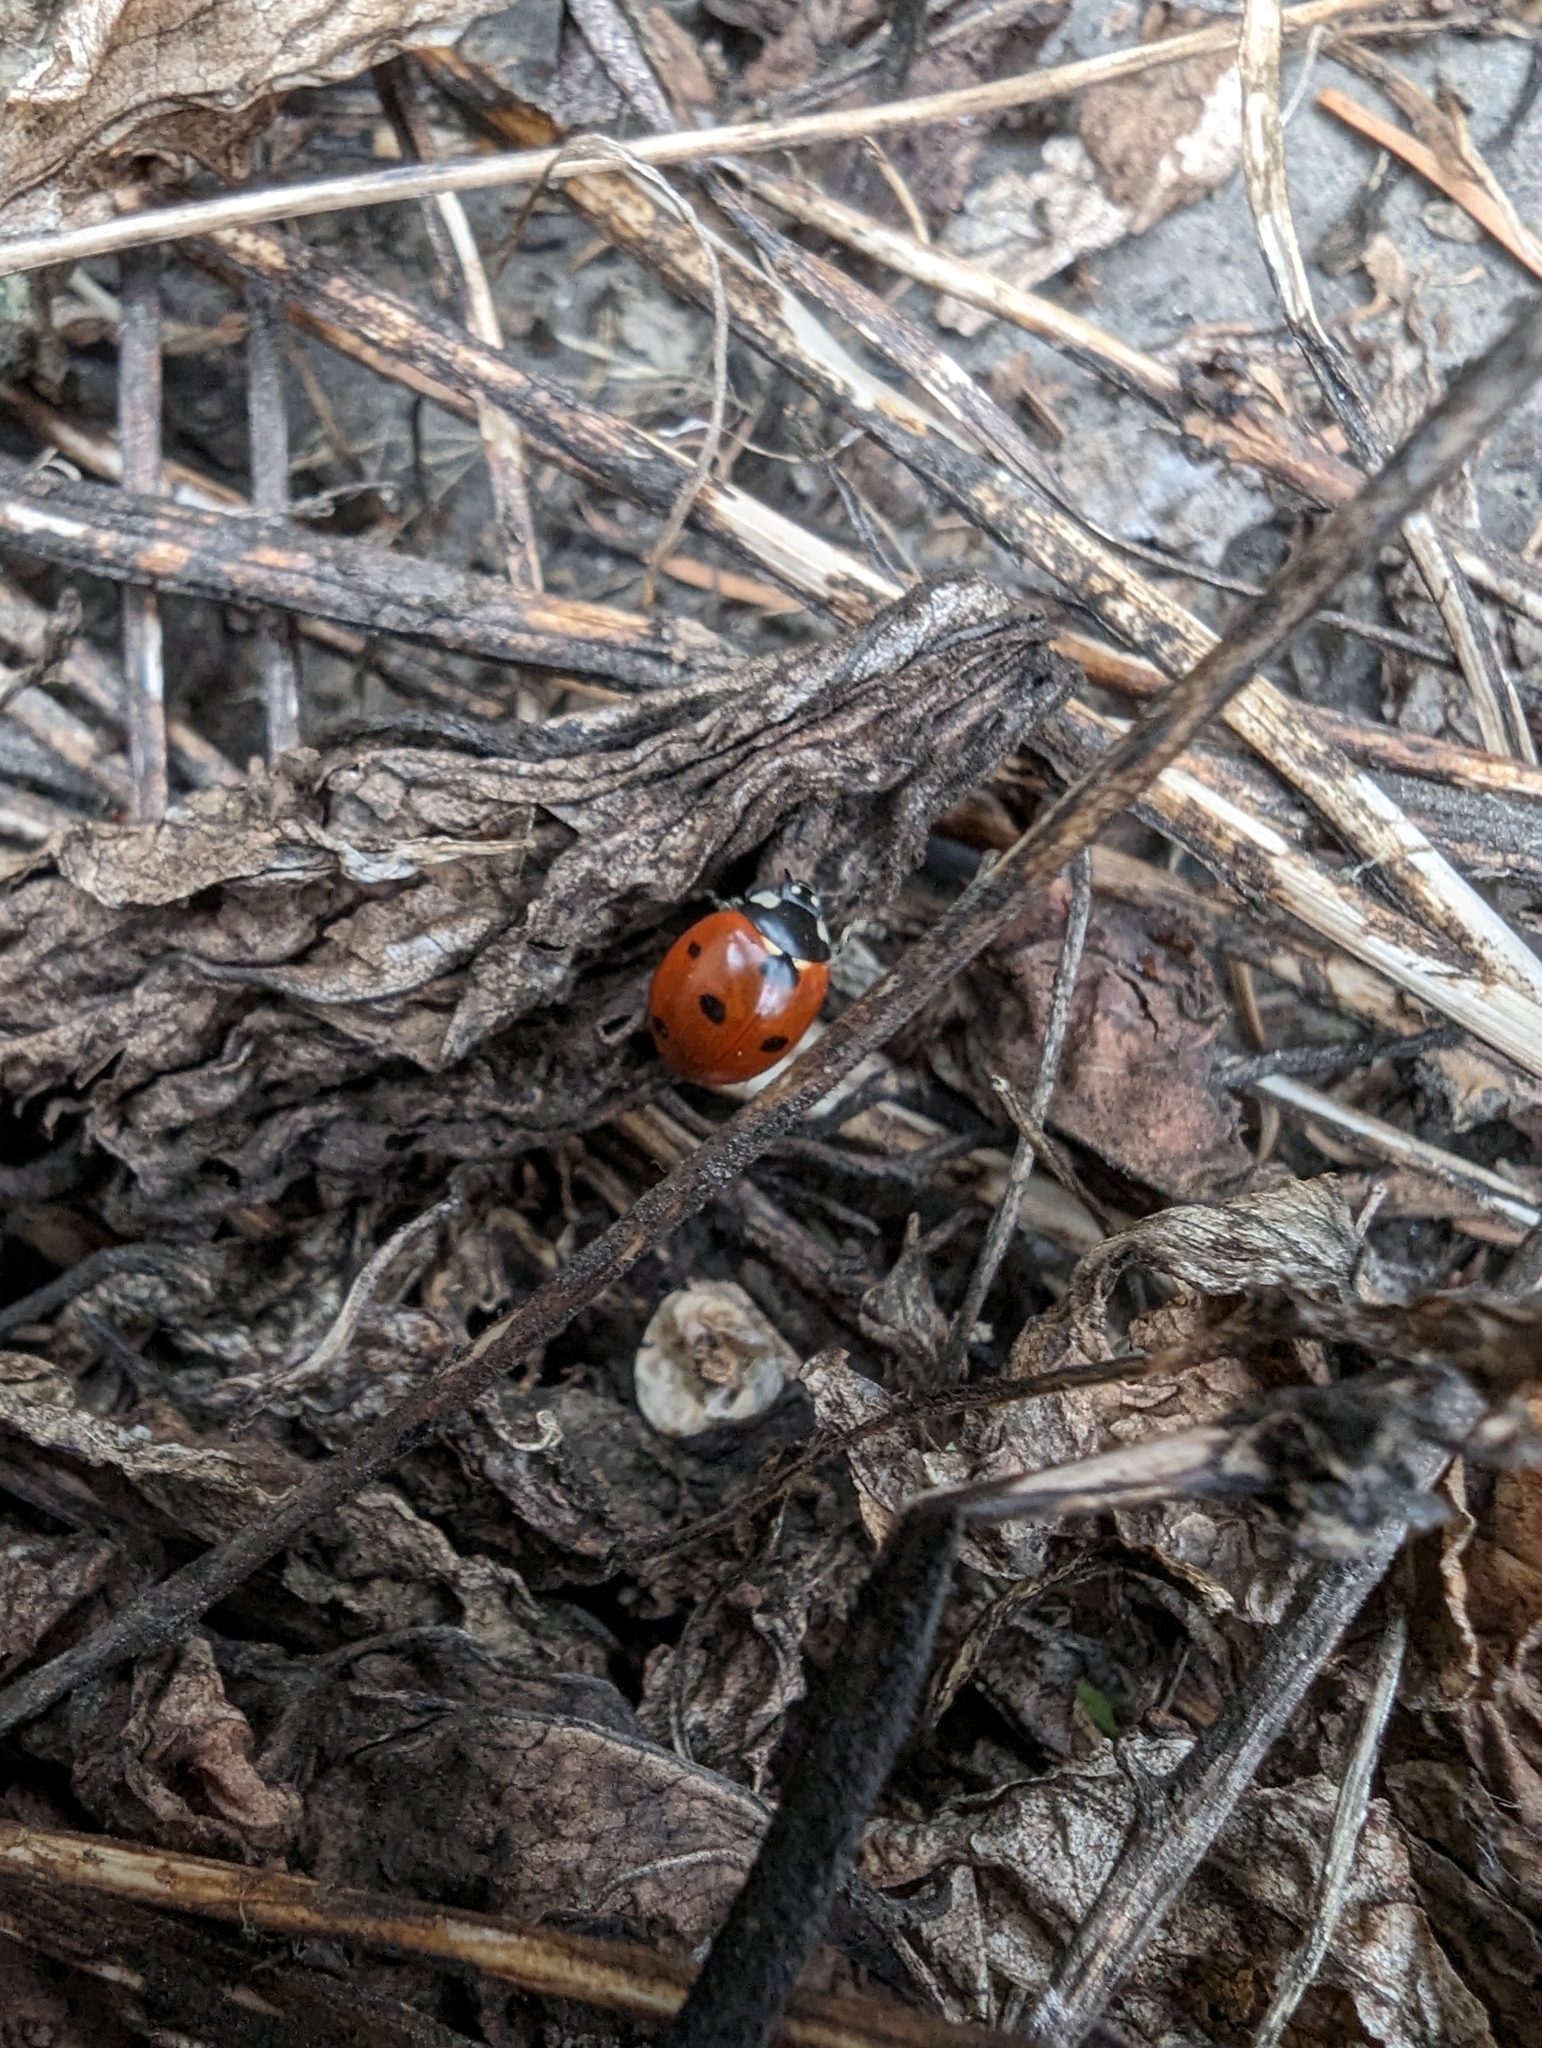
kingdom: Animalia
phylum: Arthropoda
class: Insecta
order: Coleoptera
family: Coccinellidae
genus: Coccinella
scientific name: Coccinella septempunctata
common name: Sevenspotted lady beetle
